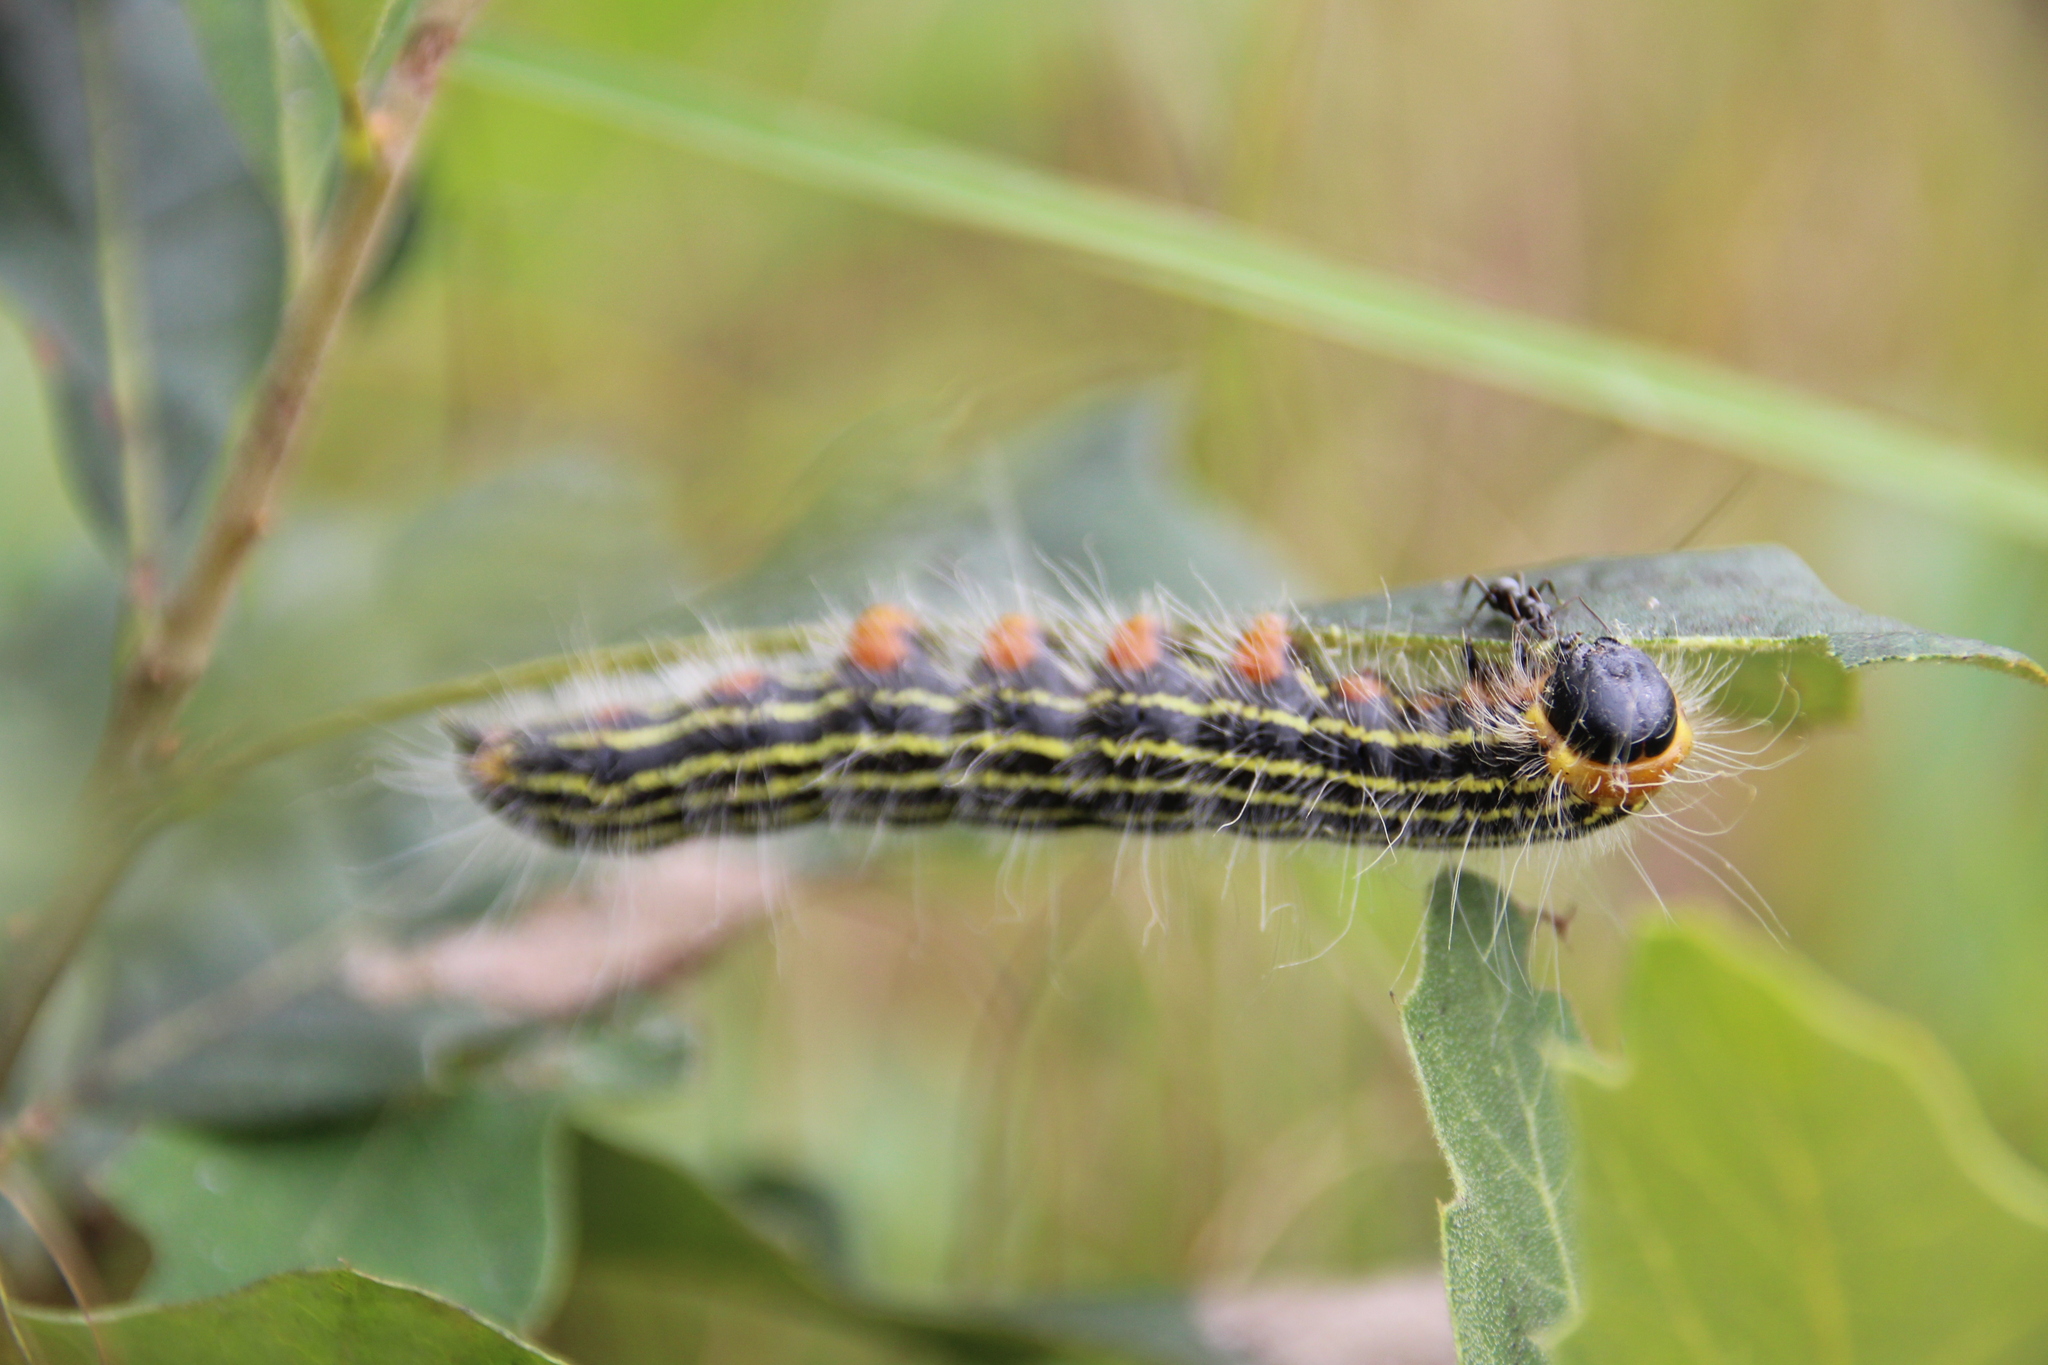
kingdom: Animalia
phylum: Arthropoda
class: Insecta
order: Lepidoptera
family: Notodontidae
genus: Datana
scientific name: Datana ministra
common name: Yellow-necked caterpillar moth
